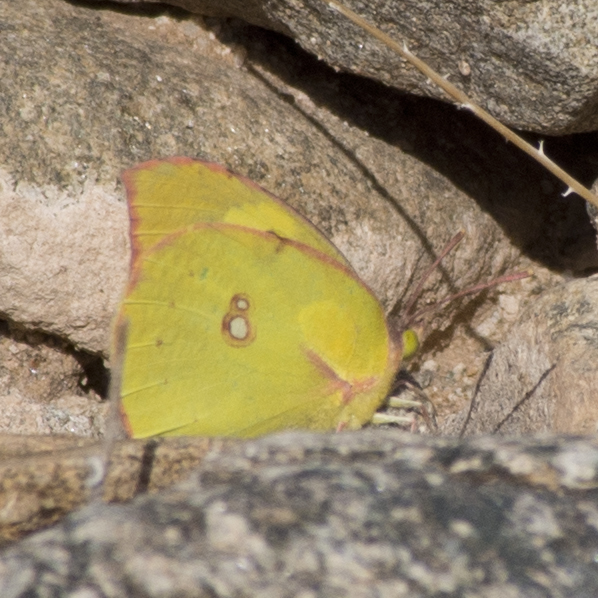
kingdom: Animalia
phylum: Arthropoda
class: Insecta
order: Lepidoptera
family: Pieridae
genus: Zerene
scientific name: Zerene cesonia
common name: Southern dogface
